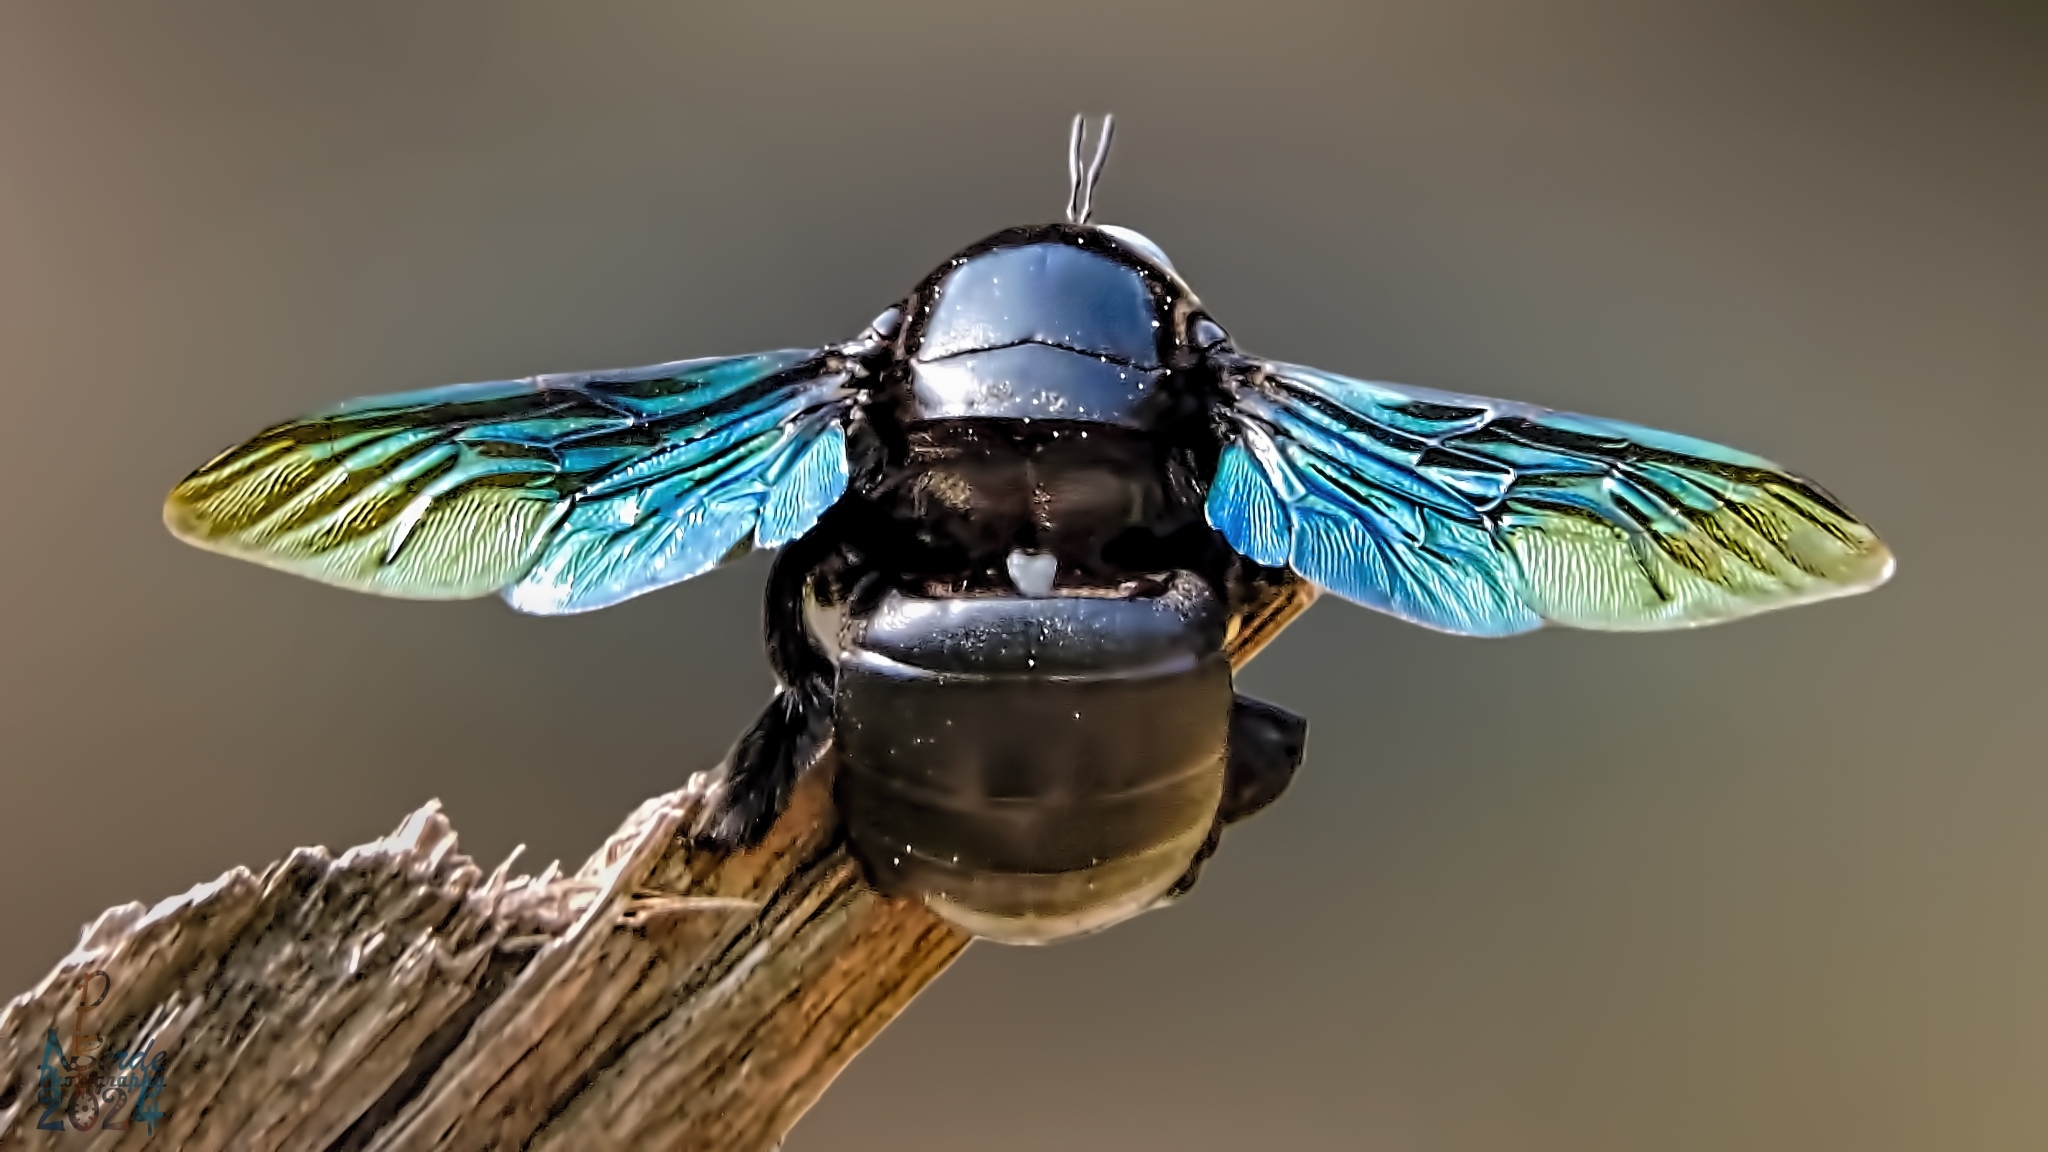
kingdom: Animalia
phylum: Arthropoda
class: Insecta
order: Hymenoptera
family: Apidae
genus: Xylocopa
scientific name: Xylocopa tenuiscapa
